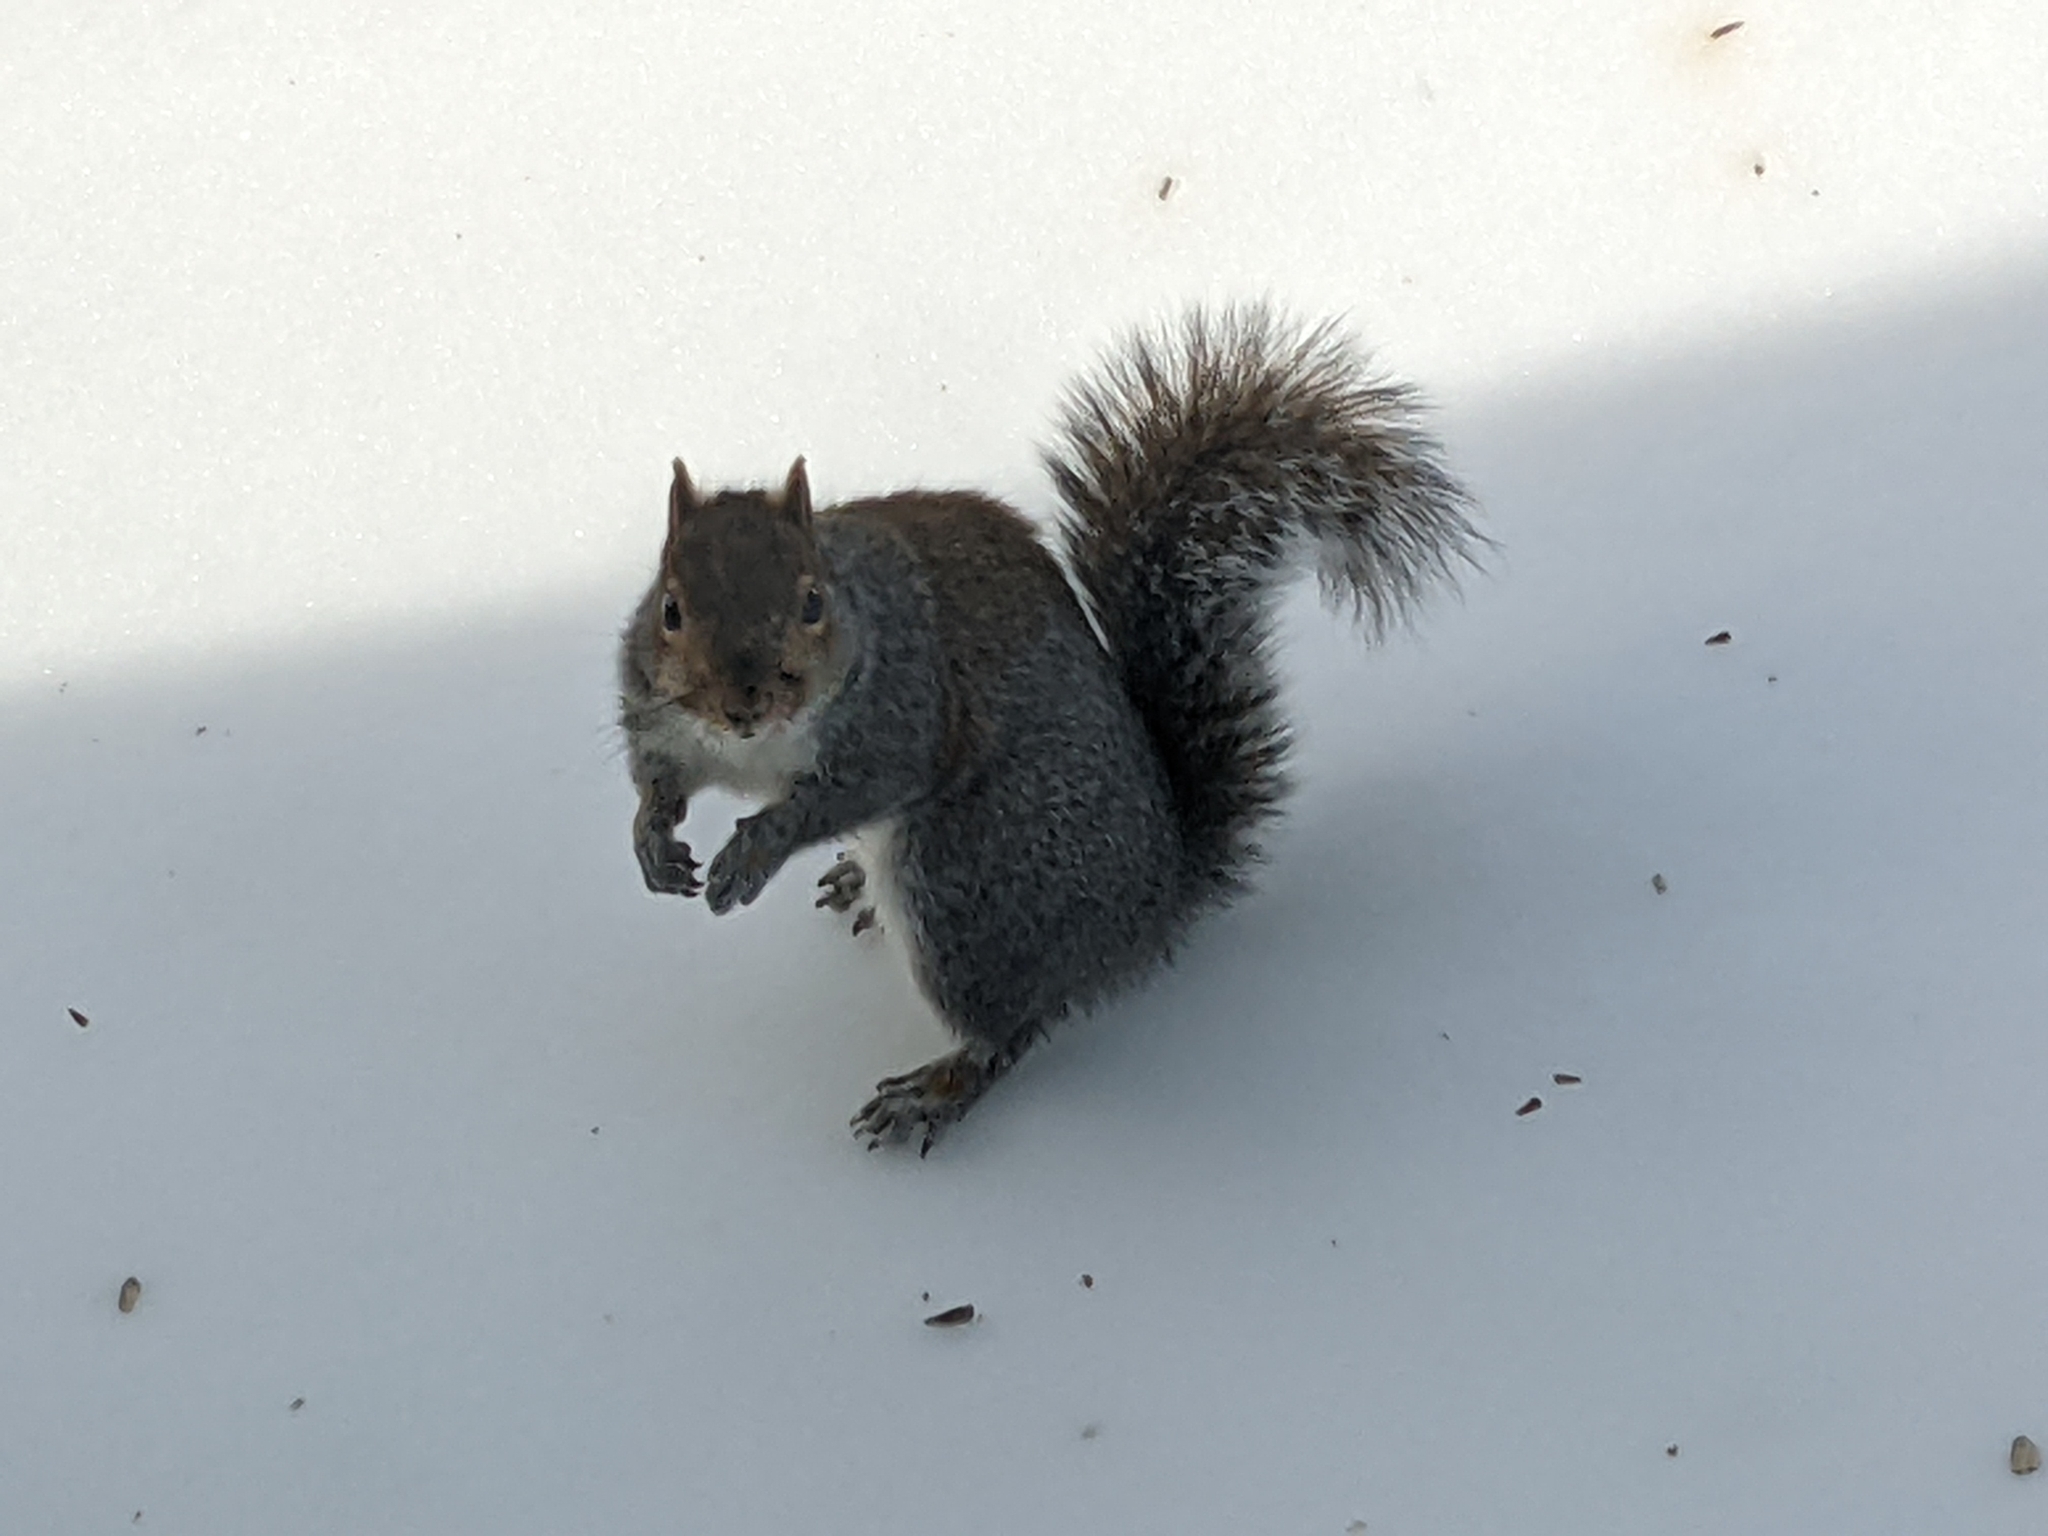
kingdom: Animalia
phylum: Chordata
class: Mammalia
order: Rodentia
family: Sciuridae
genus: Sciurus
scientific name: Sciurus carolinensis
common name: Eastern gray squirrel
